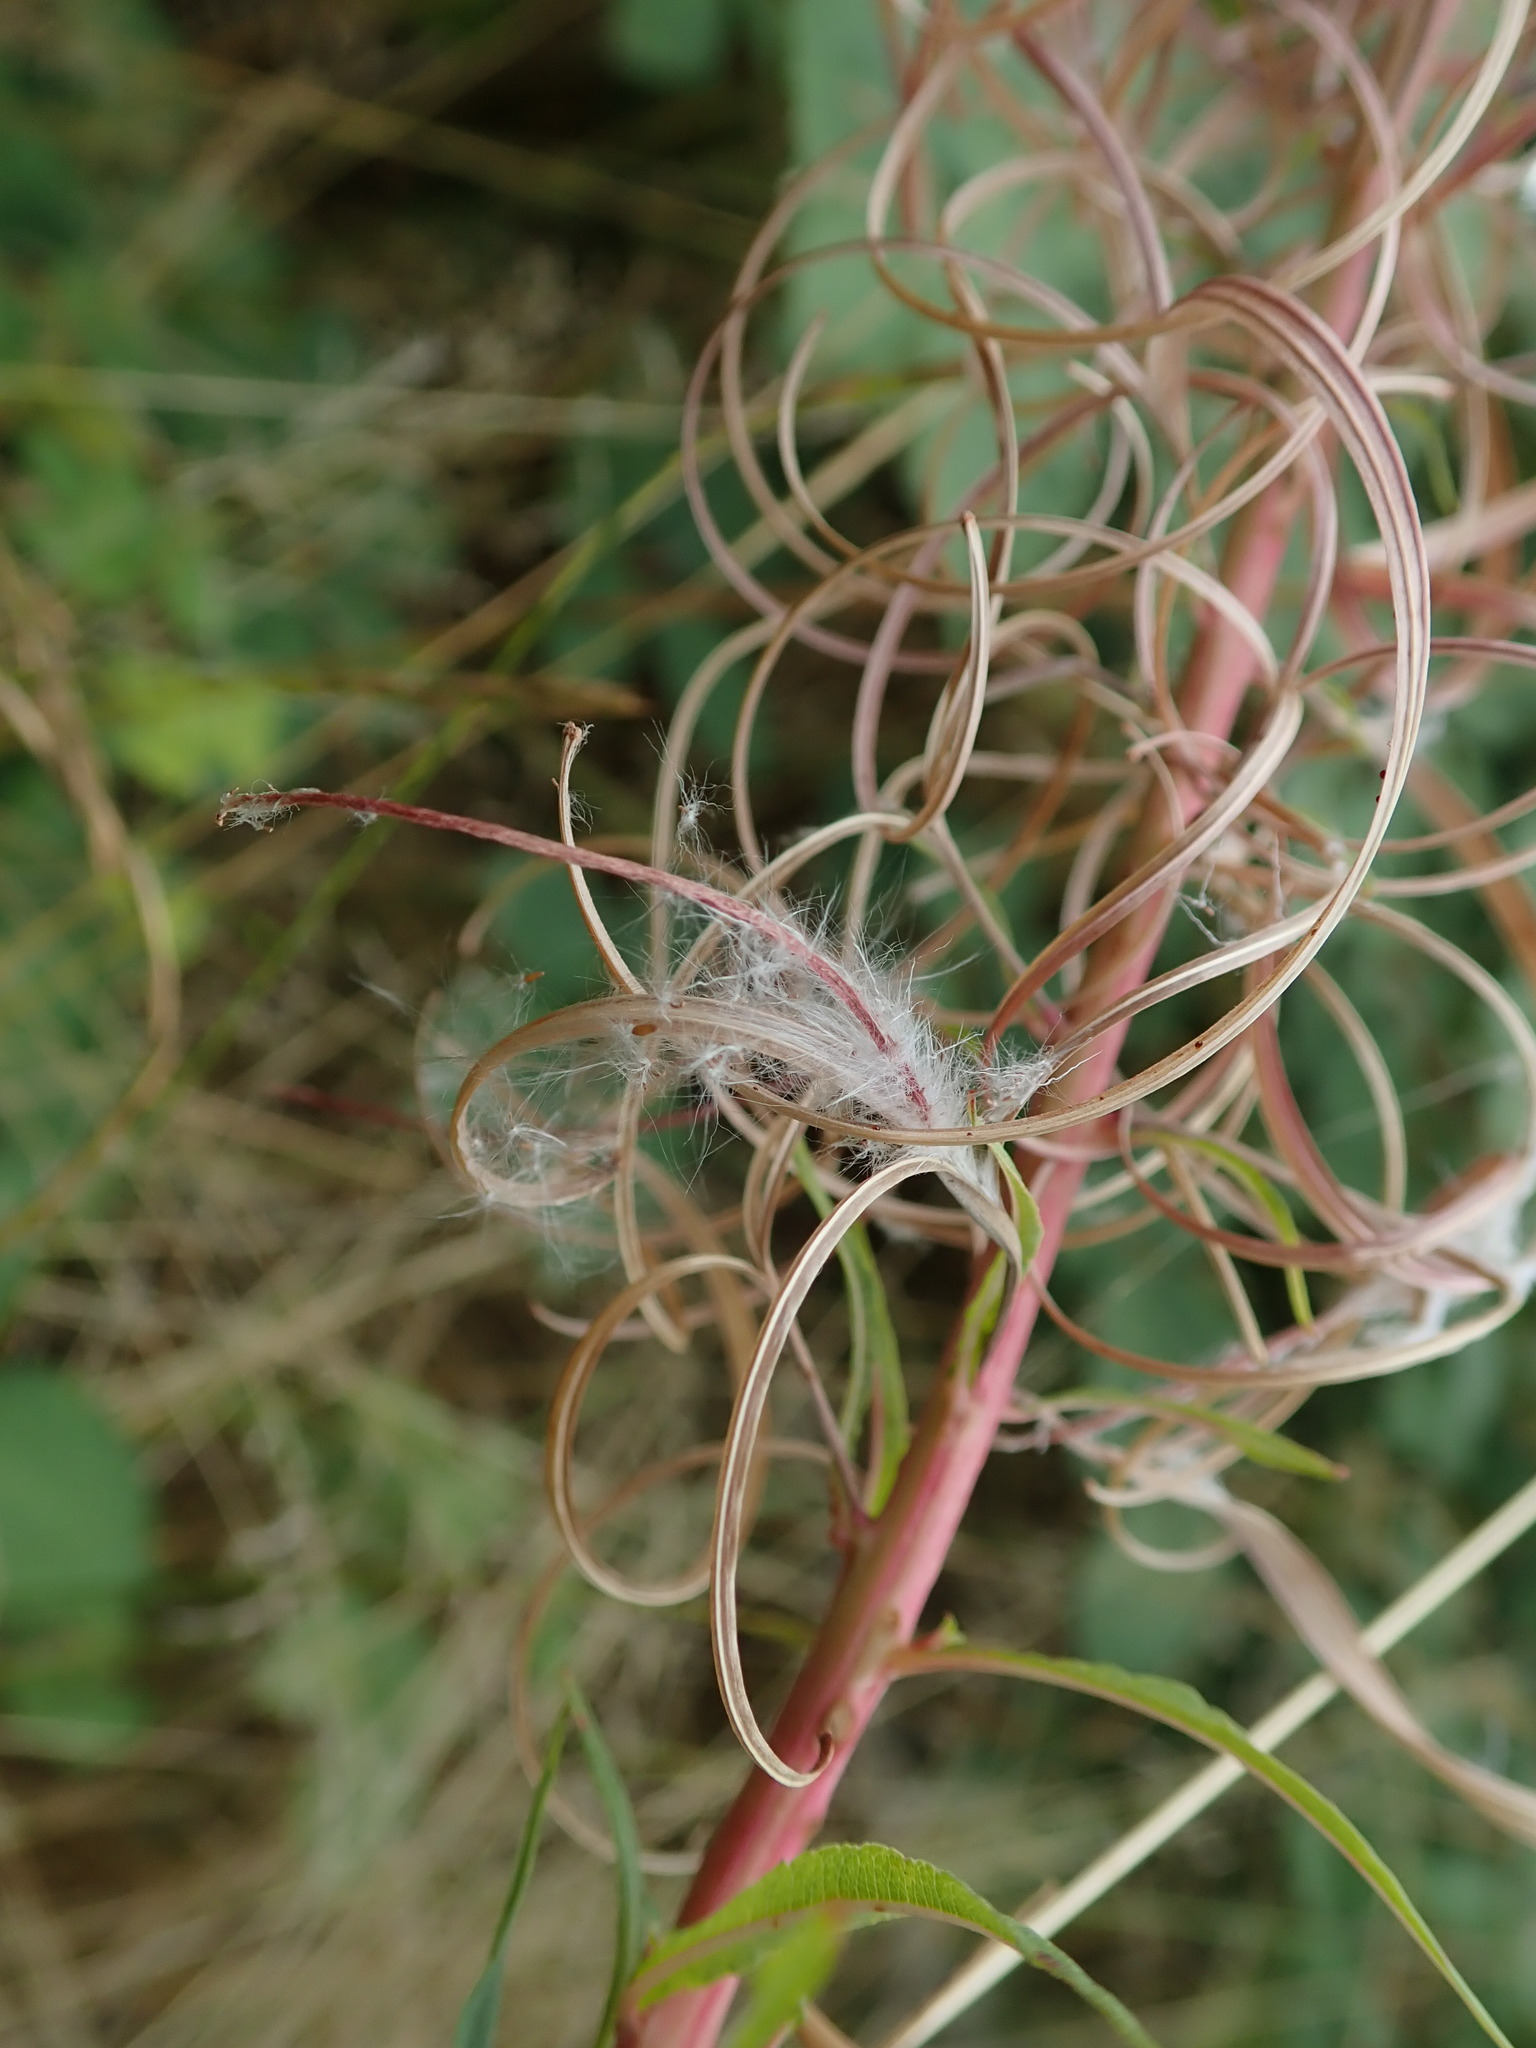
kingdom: Plantae
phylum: Tracheophyta
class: Magnoliopsida
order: Myrtales
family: Onagraceae
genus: Chamaenerion
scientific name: Chamaenerion angustifolium
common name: Fireweed
